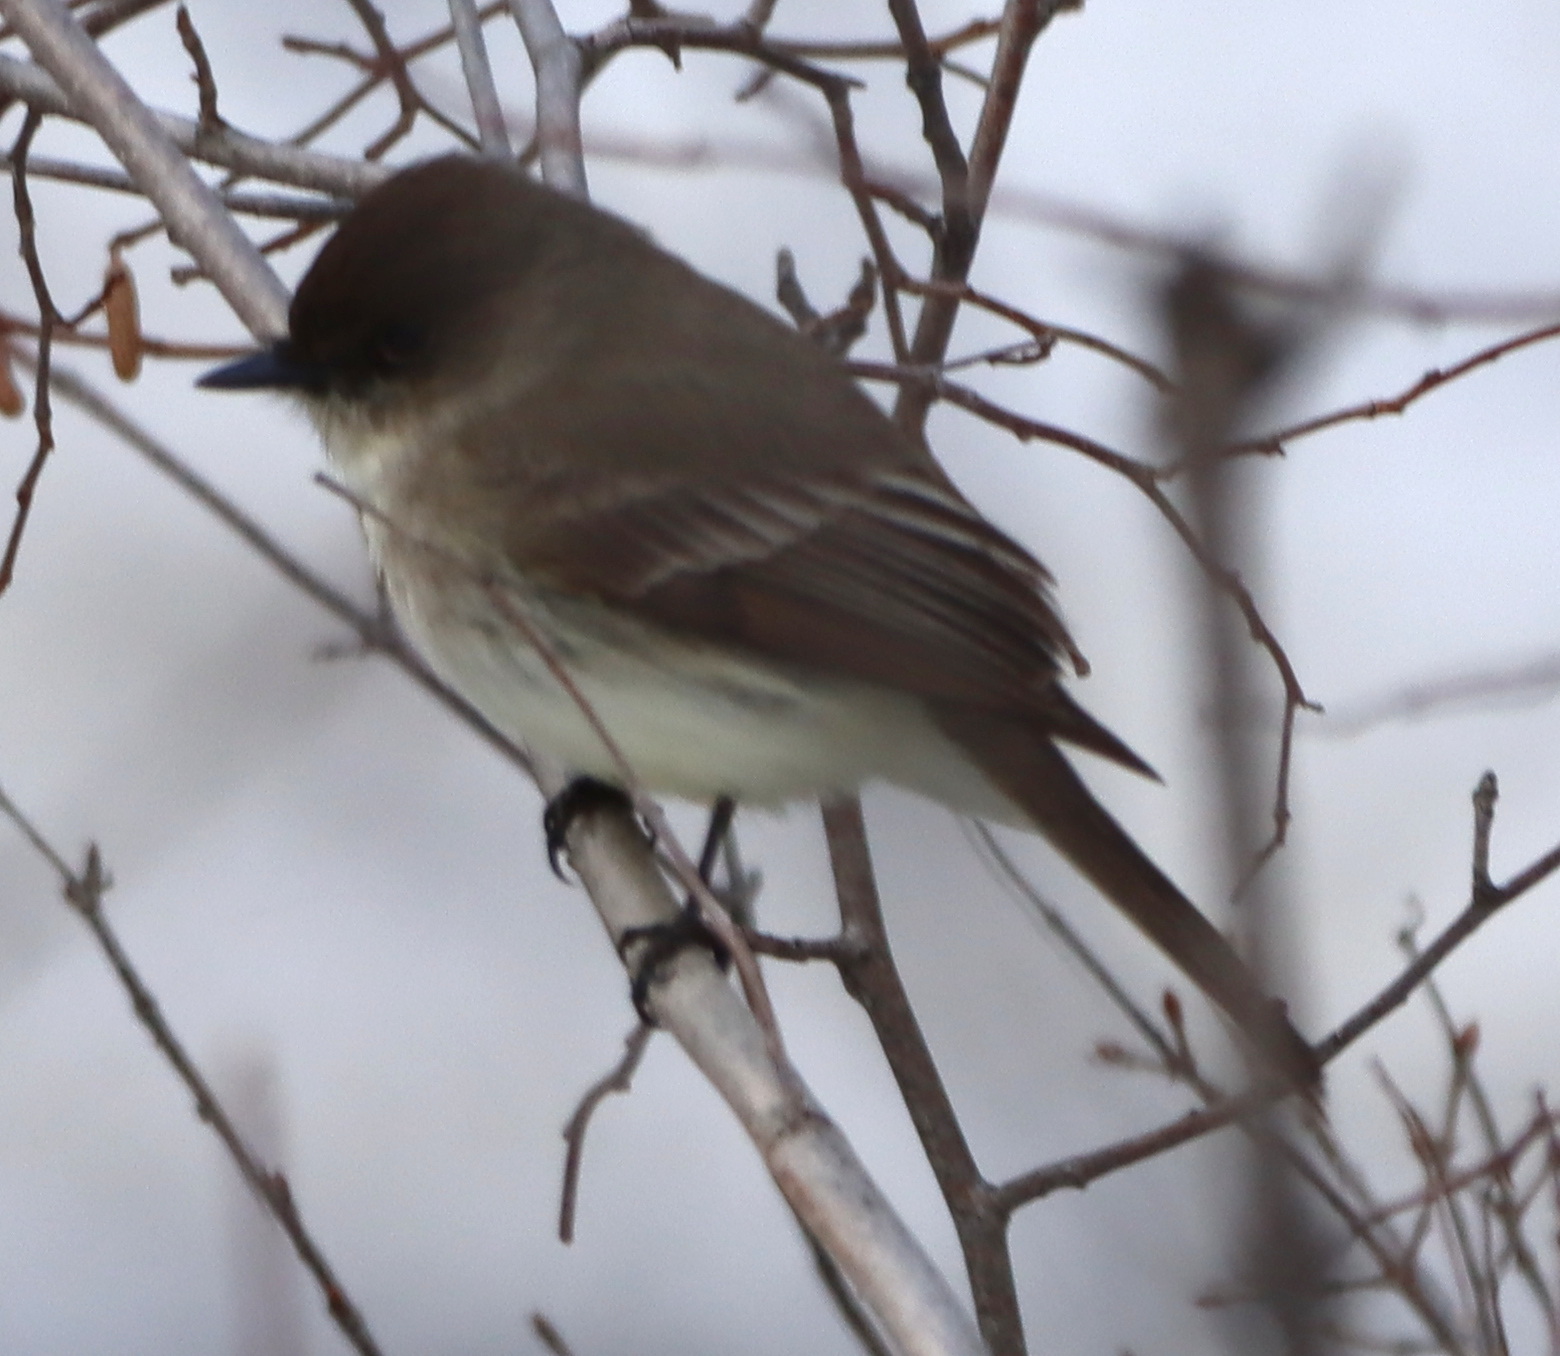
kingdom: Animalia
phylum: Chordata
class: Aves
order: Passeriformes
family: Tyrannidae
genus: Sayornis
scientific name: Sayornis phoebe
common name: Eastern phoebe
